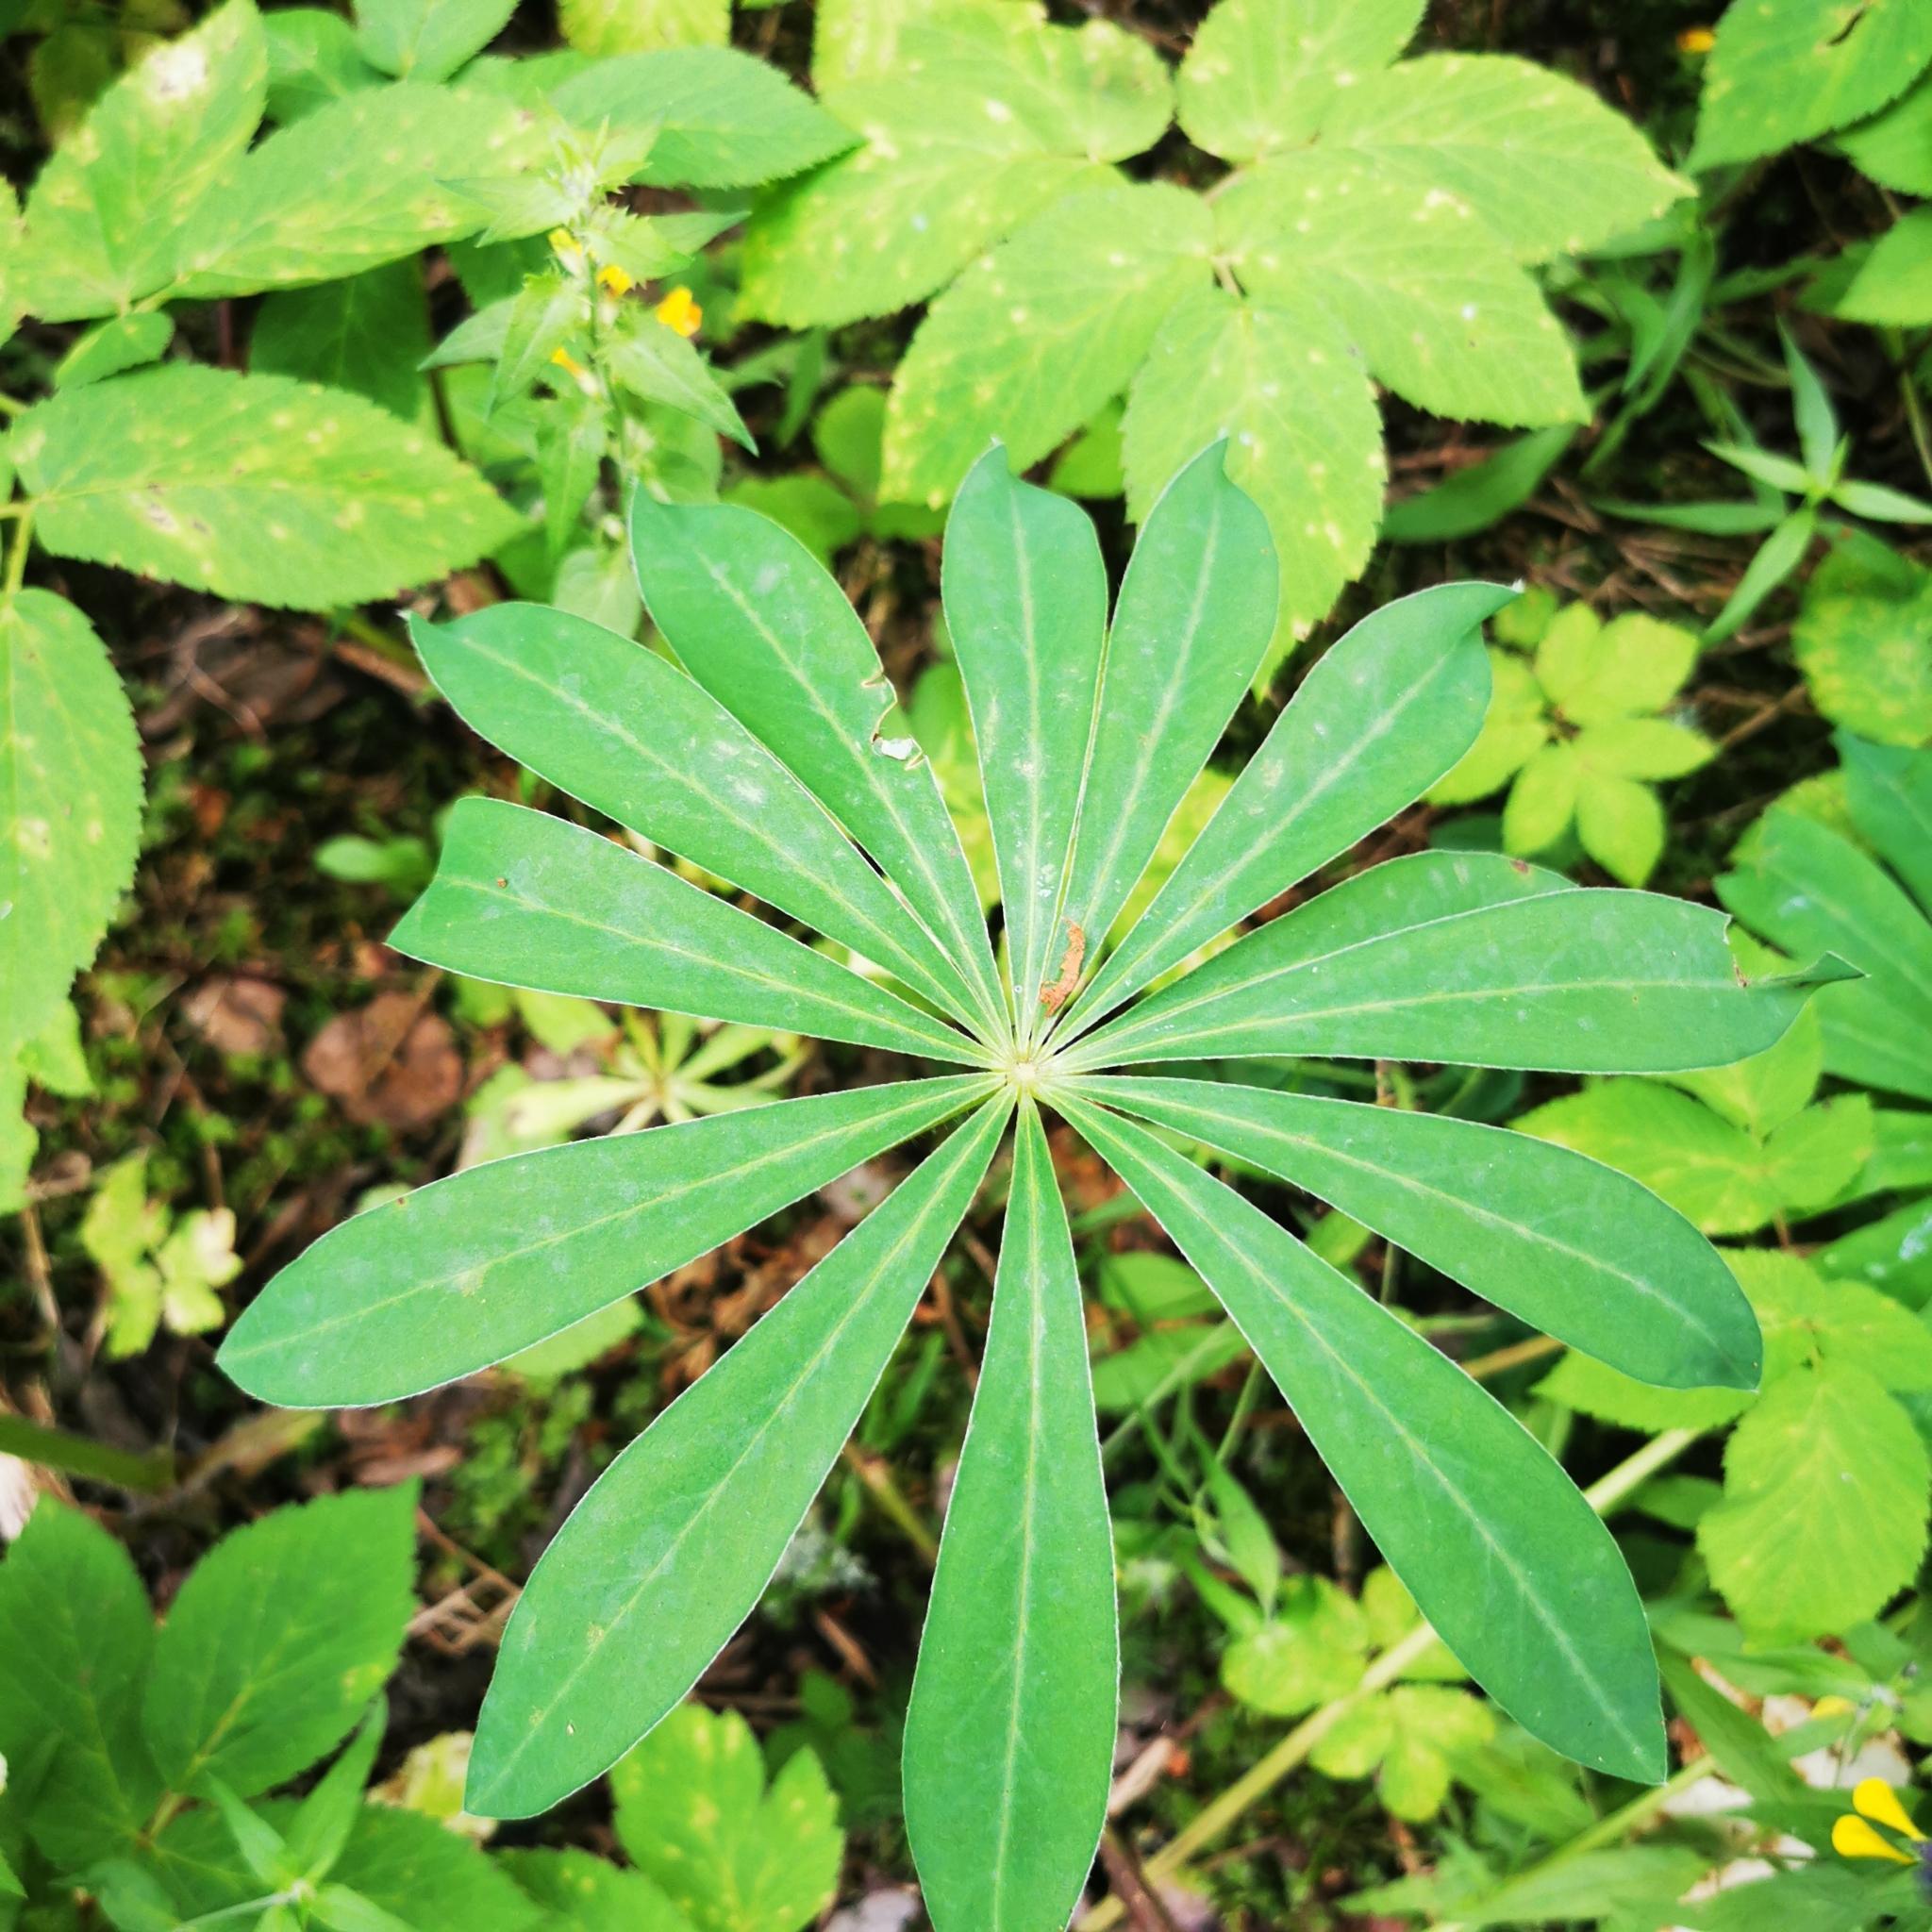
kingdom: Plantae
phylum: Tracheophyta
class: Magnoliopsida
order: Fabales
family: Fabaceae
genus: Lupinus
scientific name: Lupinus polyphyllus
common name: Garden lupin
